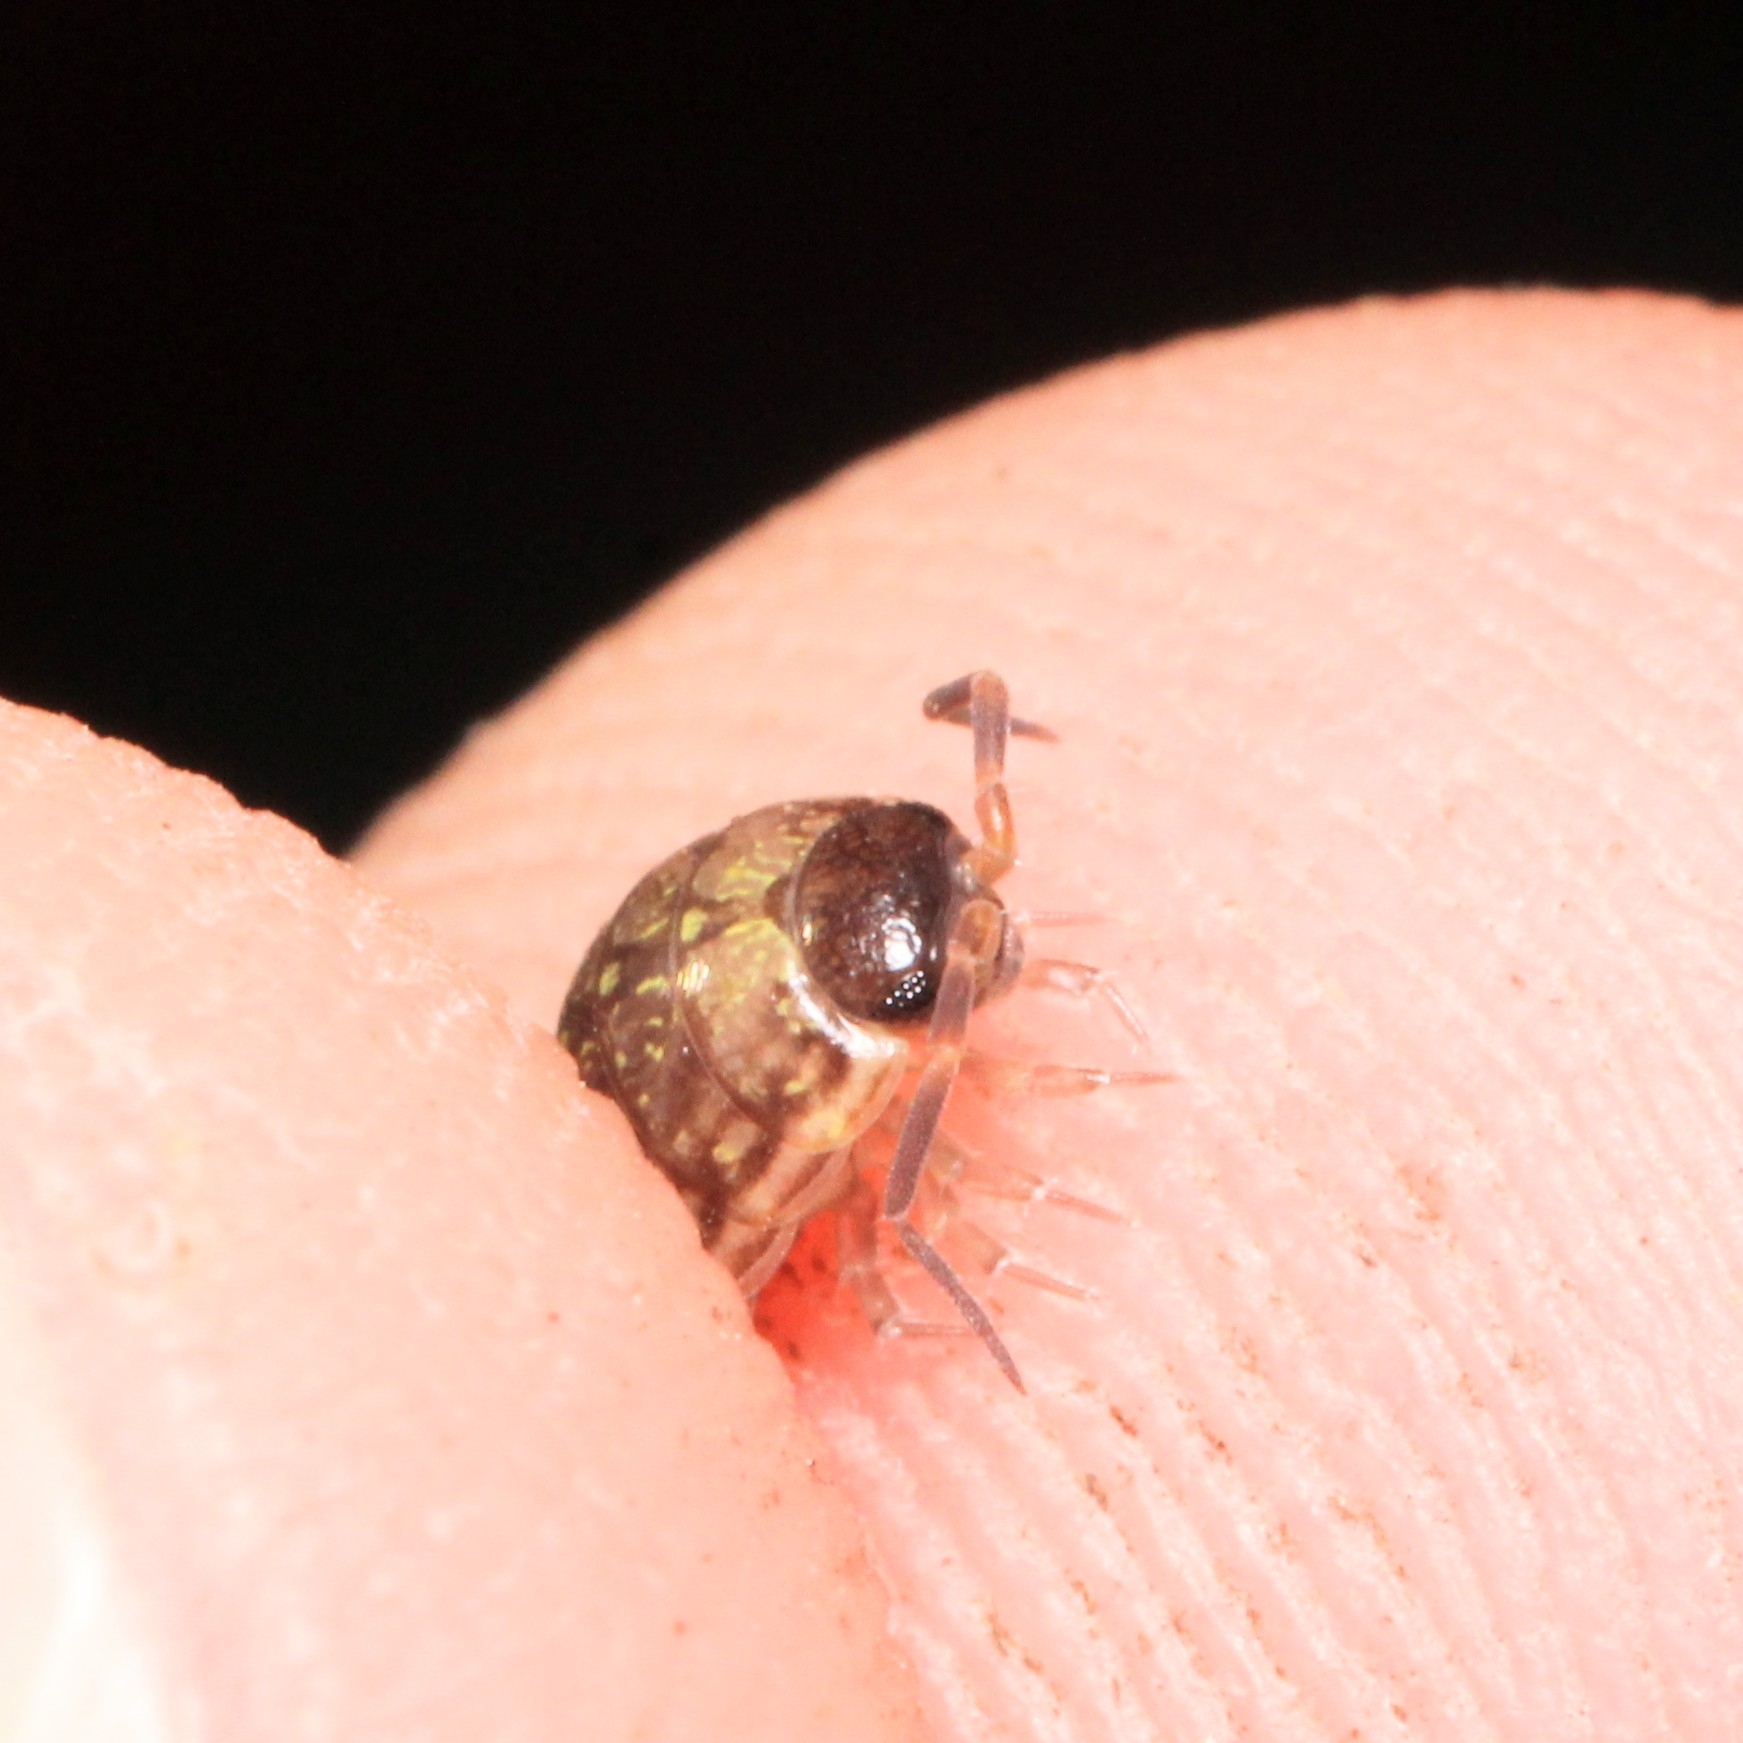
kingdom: Animalia
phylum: Arthropoda
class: Malacostraca
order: Isopoda
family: Philosciidae
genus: Philoscia
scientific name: Philoscia muscorum
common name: Common striped woodlouse
